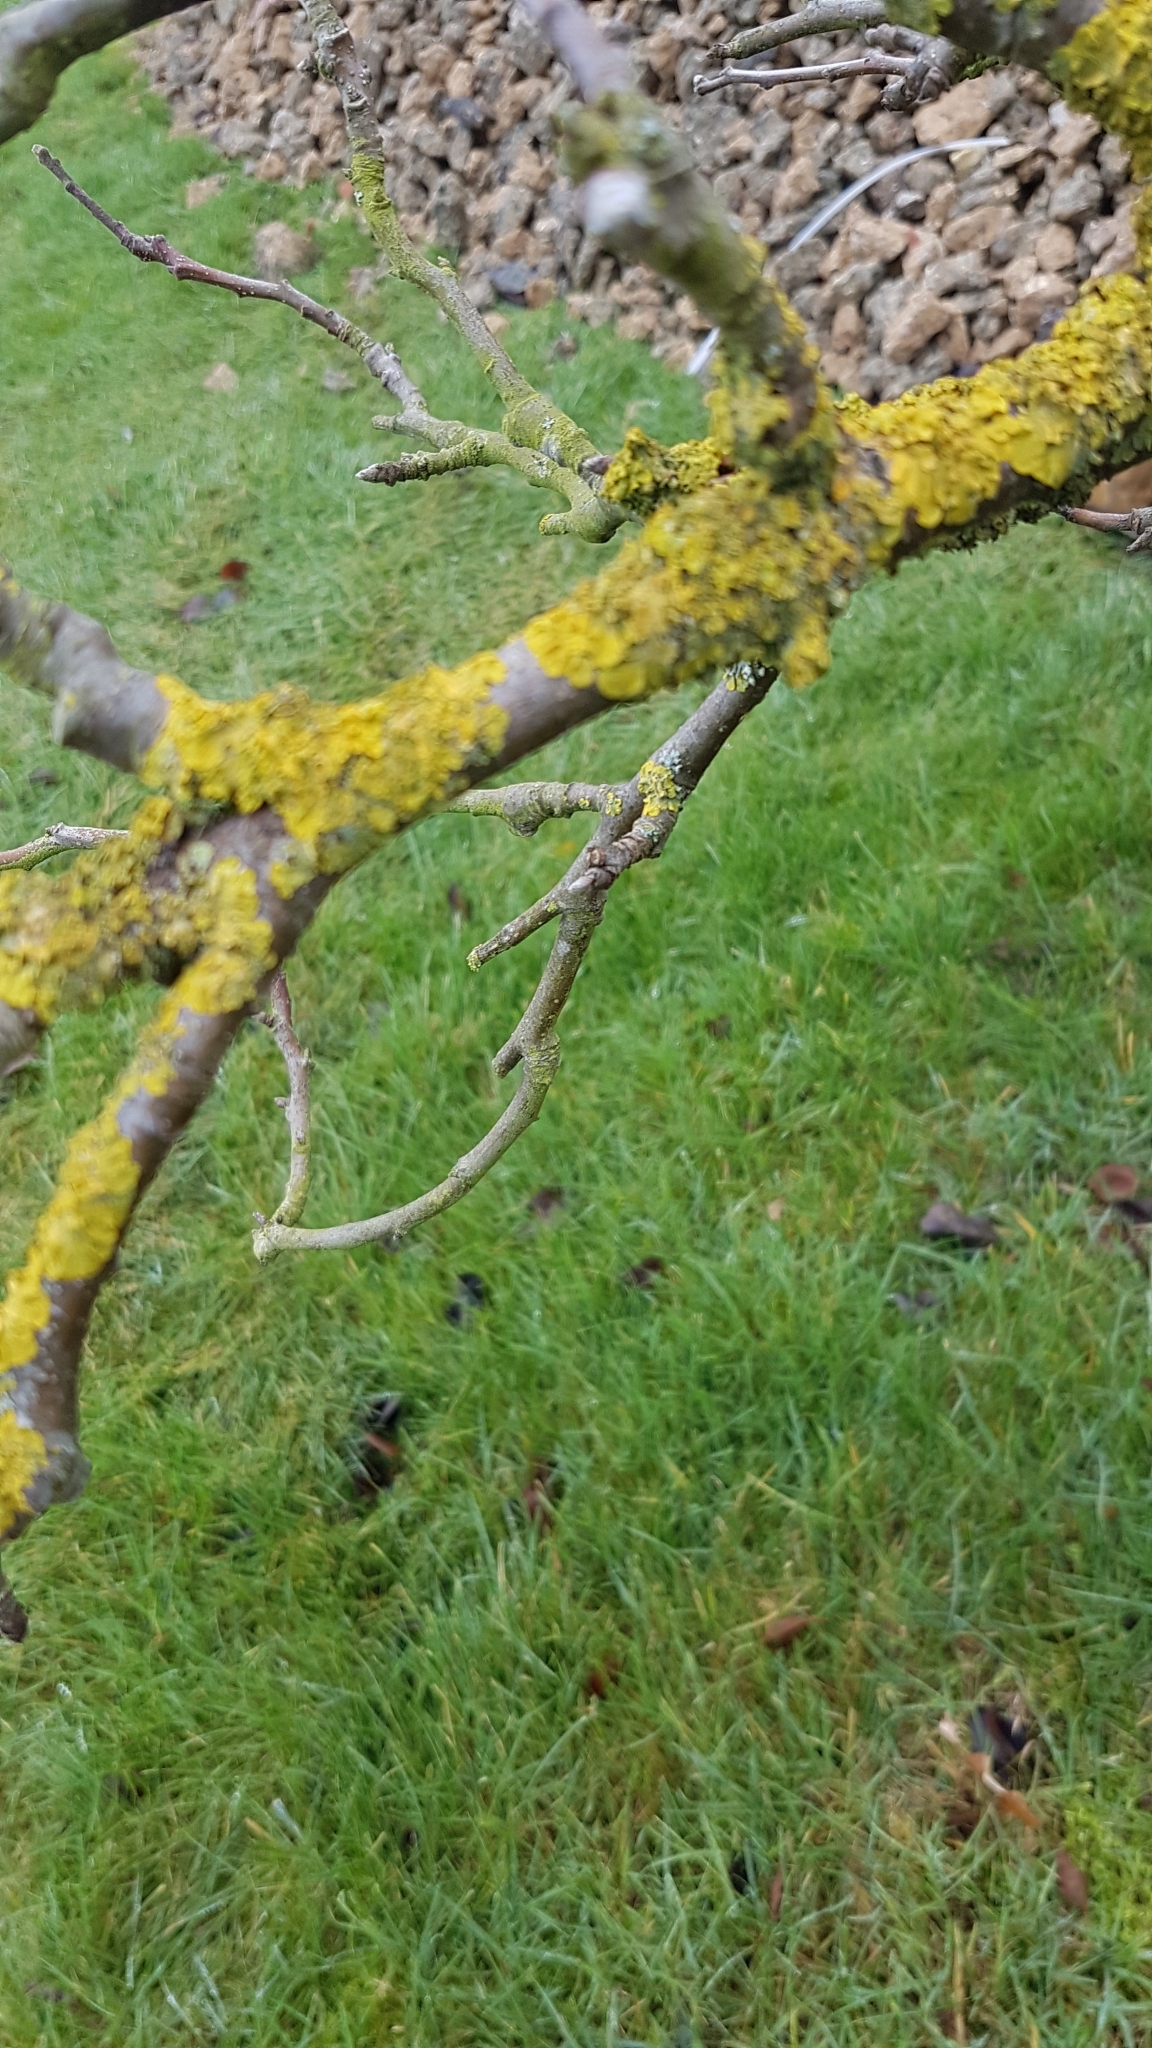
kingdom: Fungi
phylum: Ascomycota
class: Lecanoromycetes
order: Teloschistales
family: Teloschistaceae
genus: Xanthoria
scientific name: Xanthoria parietina
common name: Common orange lichen
